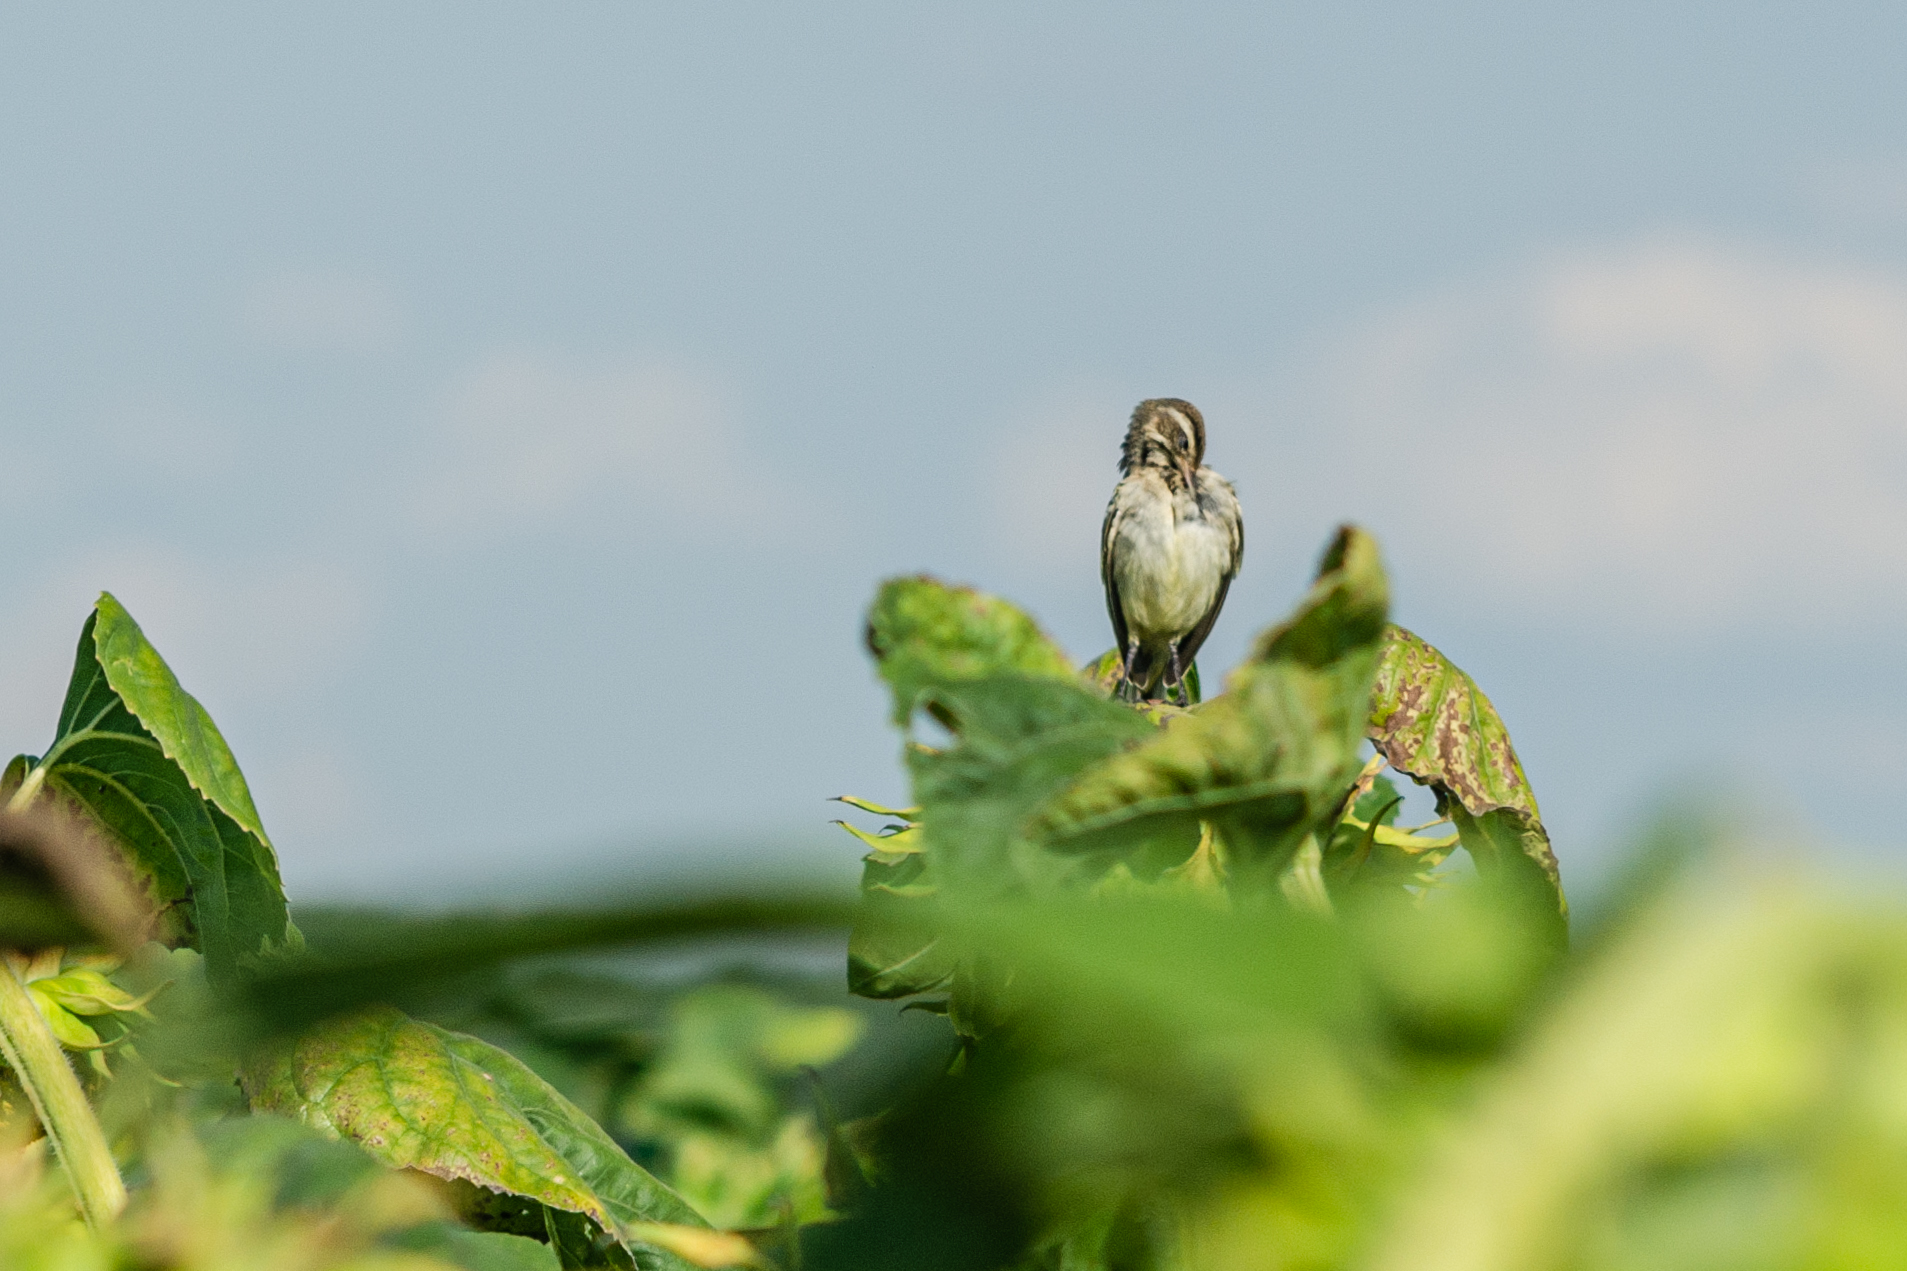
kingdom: Animalia
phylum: Chordata
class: Aves
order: Passeriformes
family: Laniidae
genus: Lanius
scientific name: Lanius collurio
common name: Red-backed shrike
